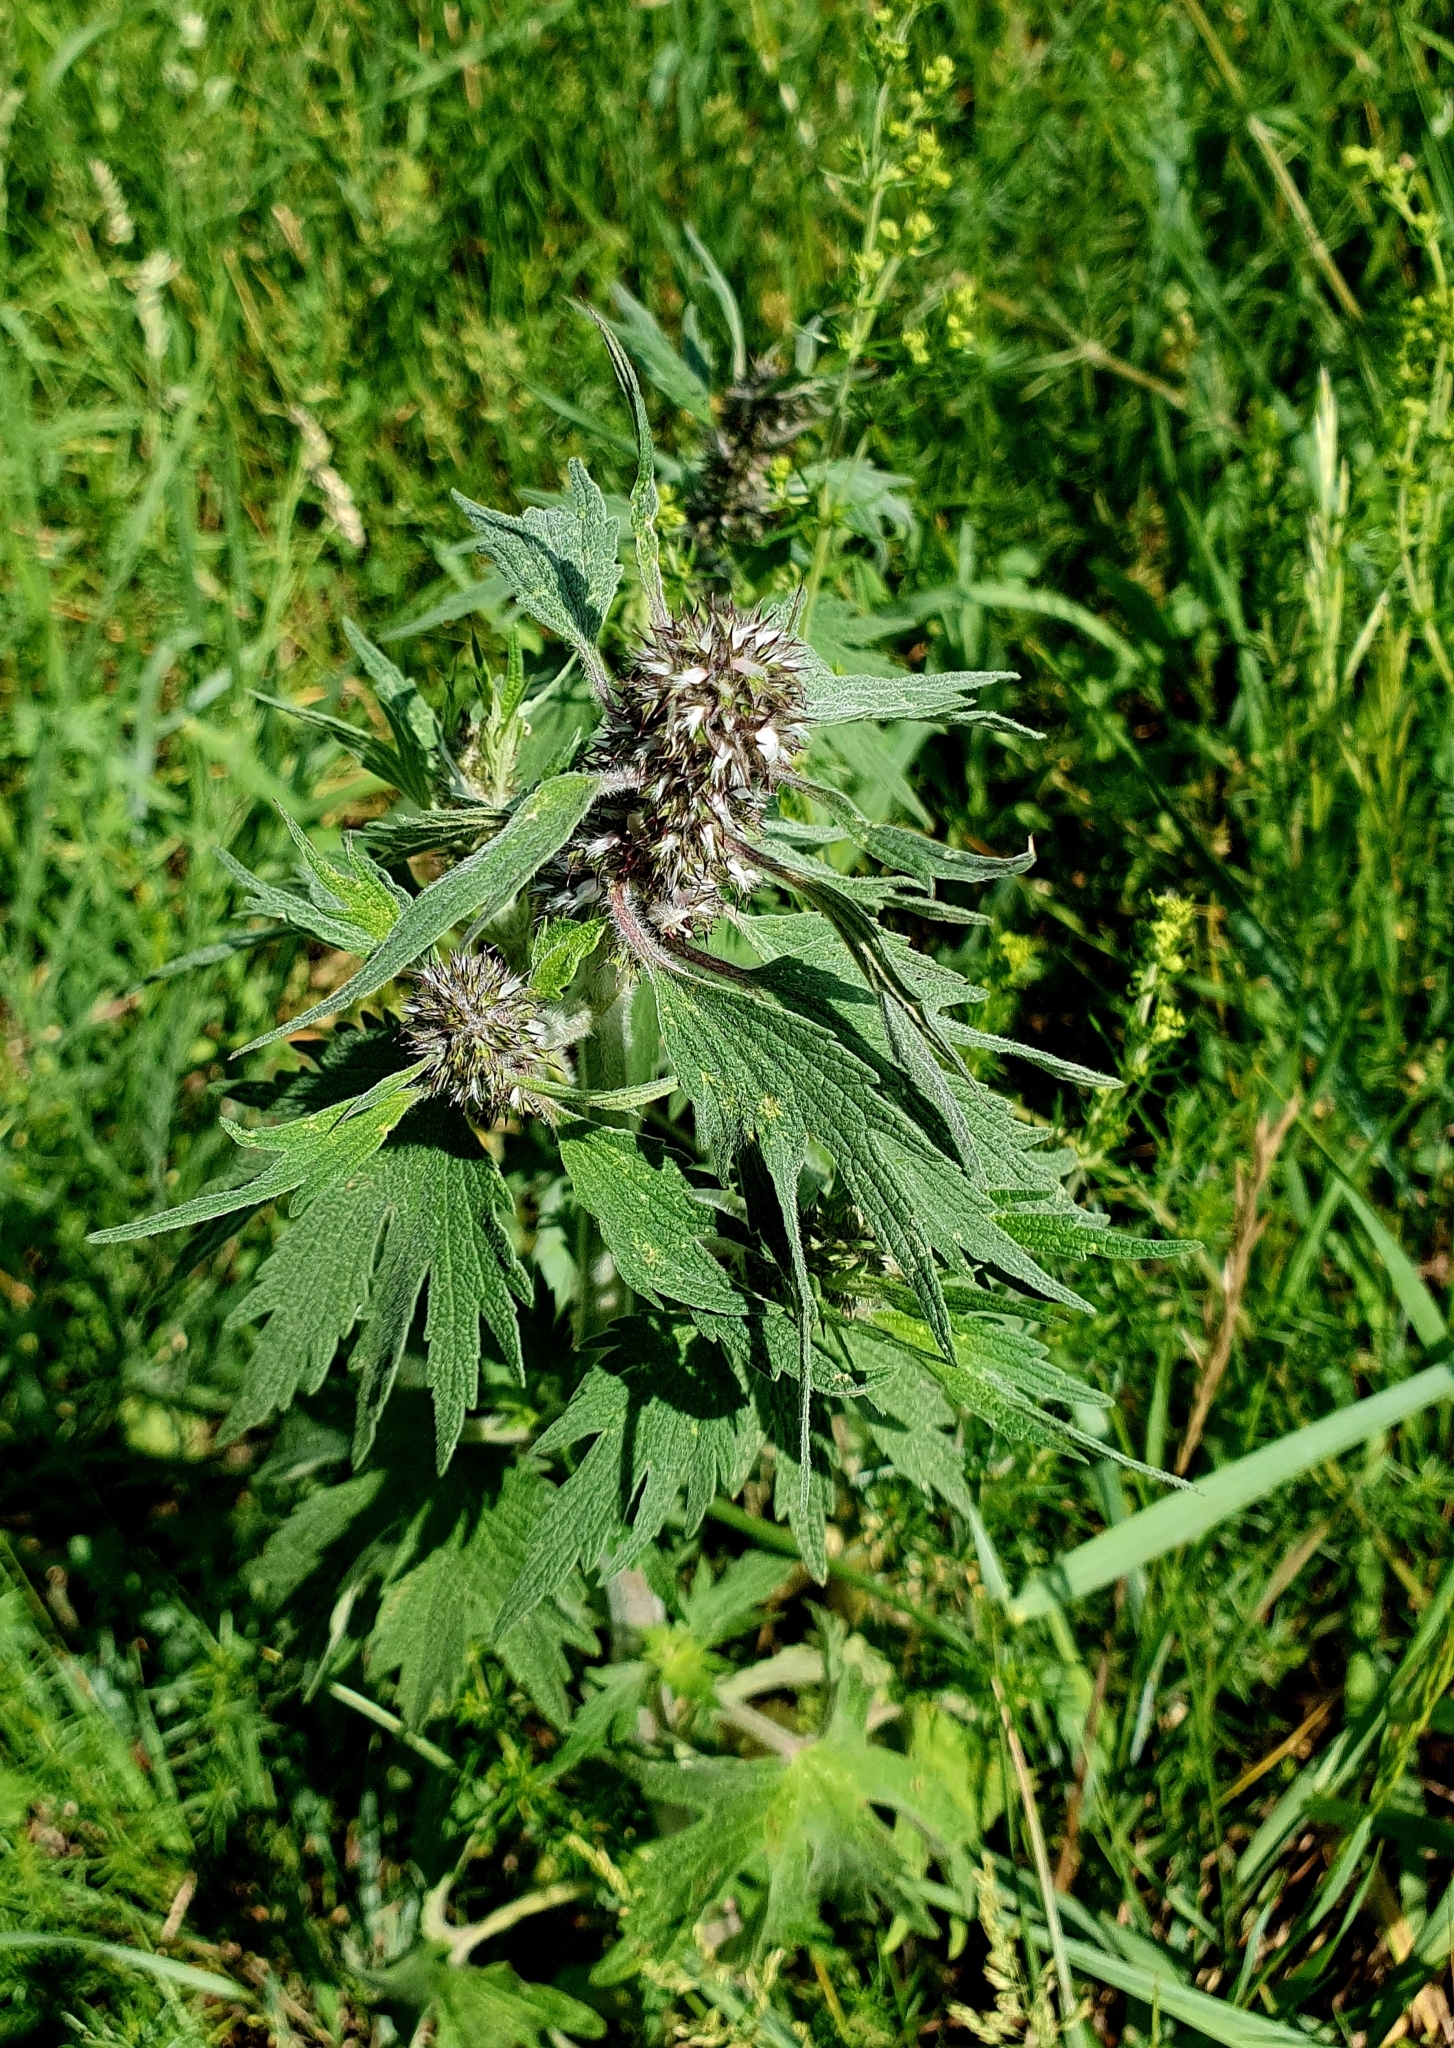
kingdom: Plantae
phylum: Tracheophyta
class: Magnoliopsida
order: Lamiales
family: Lamiaceae
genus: Leonurus
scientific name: Leonurus quinquelobatus
